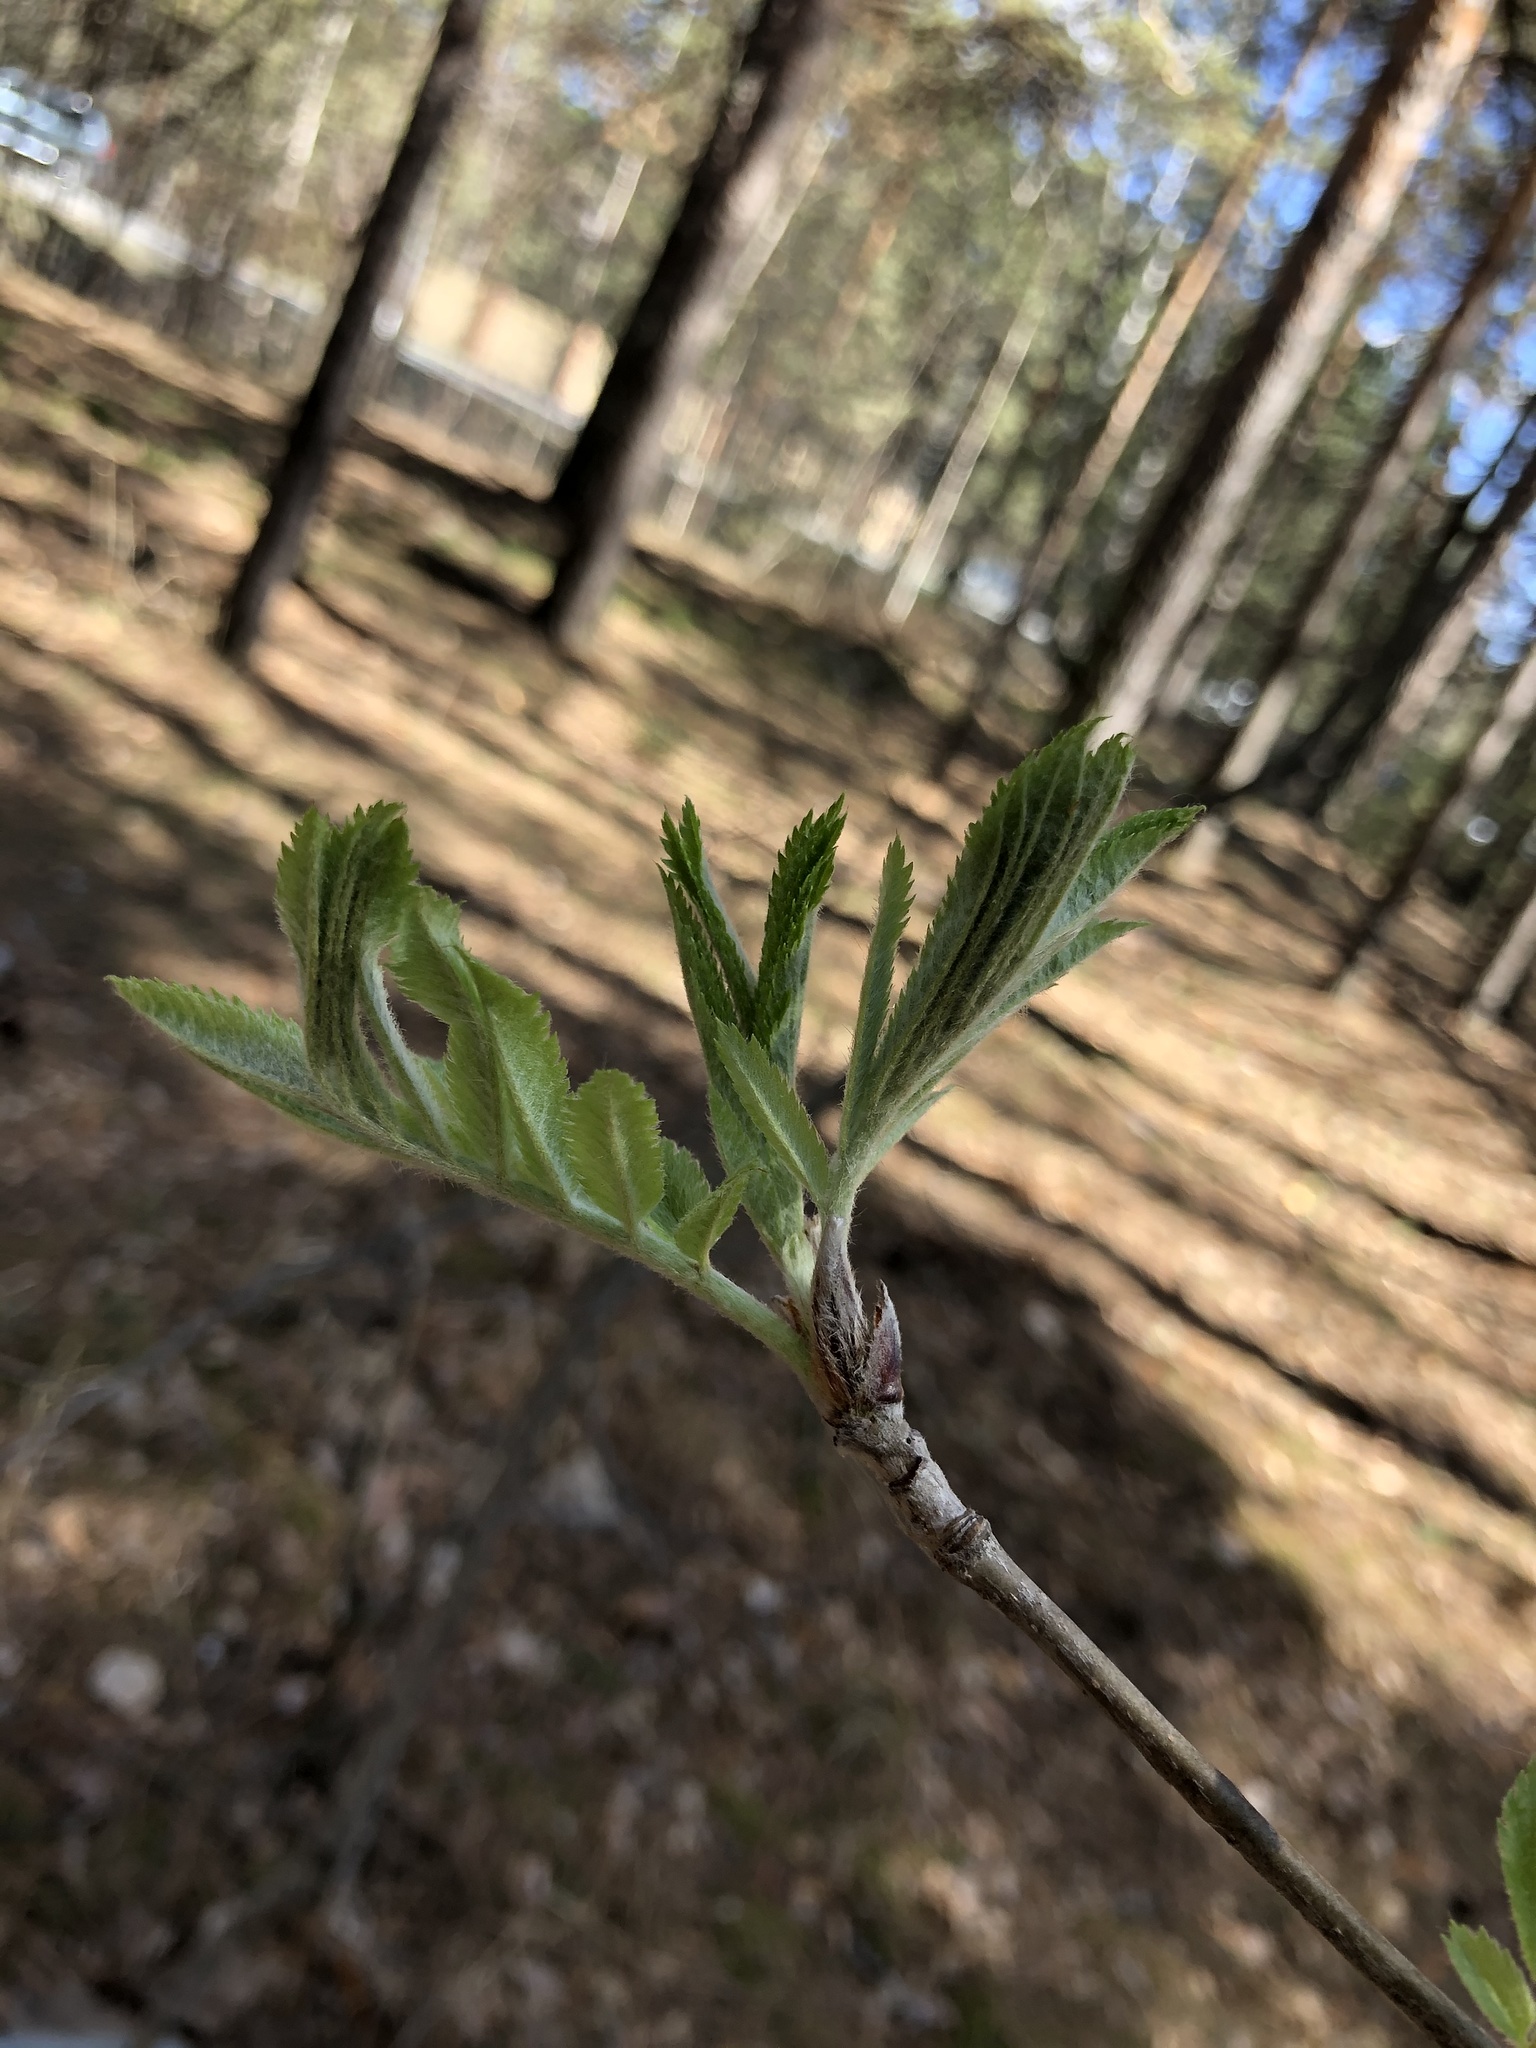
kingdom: Plantae
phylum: Tracheophyta
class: Magnoliopsida
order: Rosales
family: Rosaceae
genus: Sorbus
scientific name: Sorbus aucuparia
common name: Rowan
